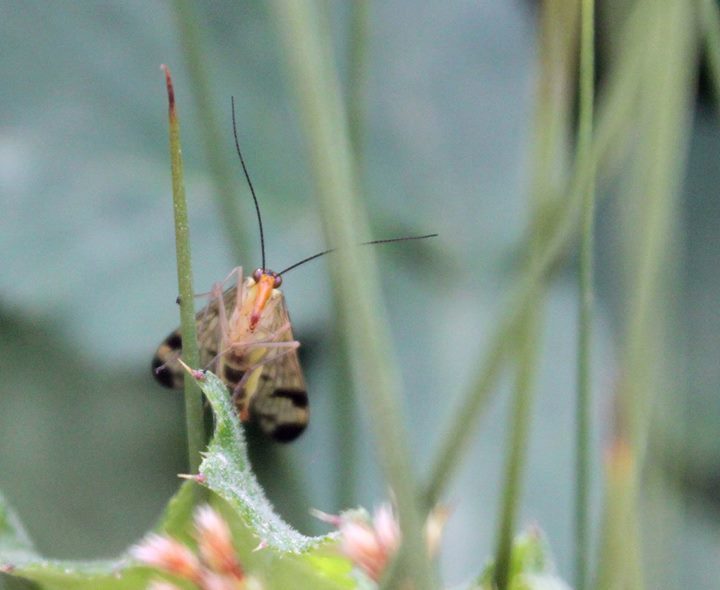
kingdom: Animalia
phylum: Arthropoda
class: Insecta
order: Mecoptera
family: Panorpidae
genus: Panorpa
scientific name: Panorpa communis
